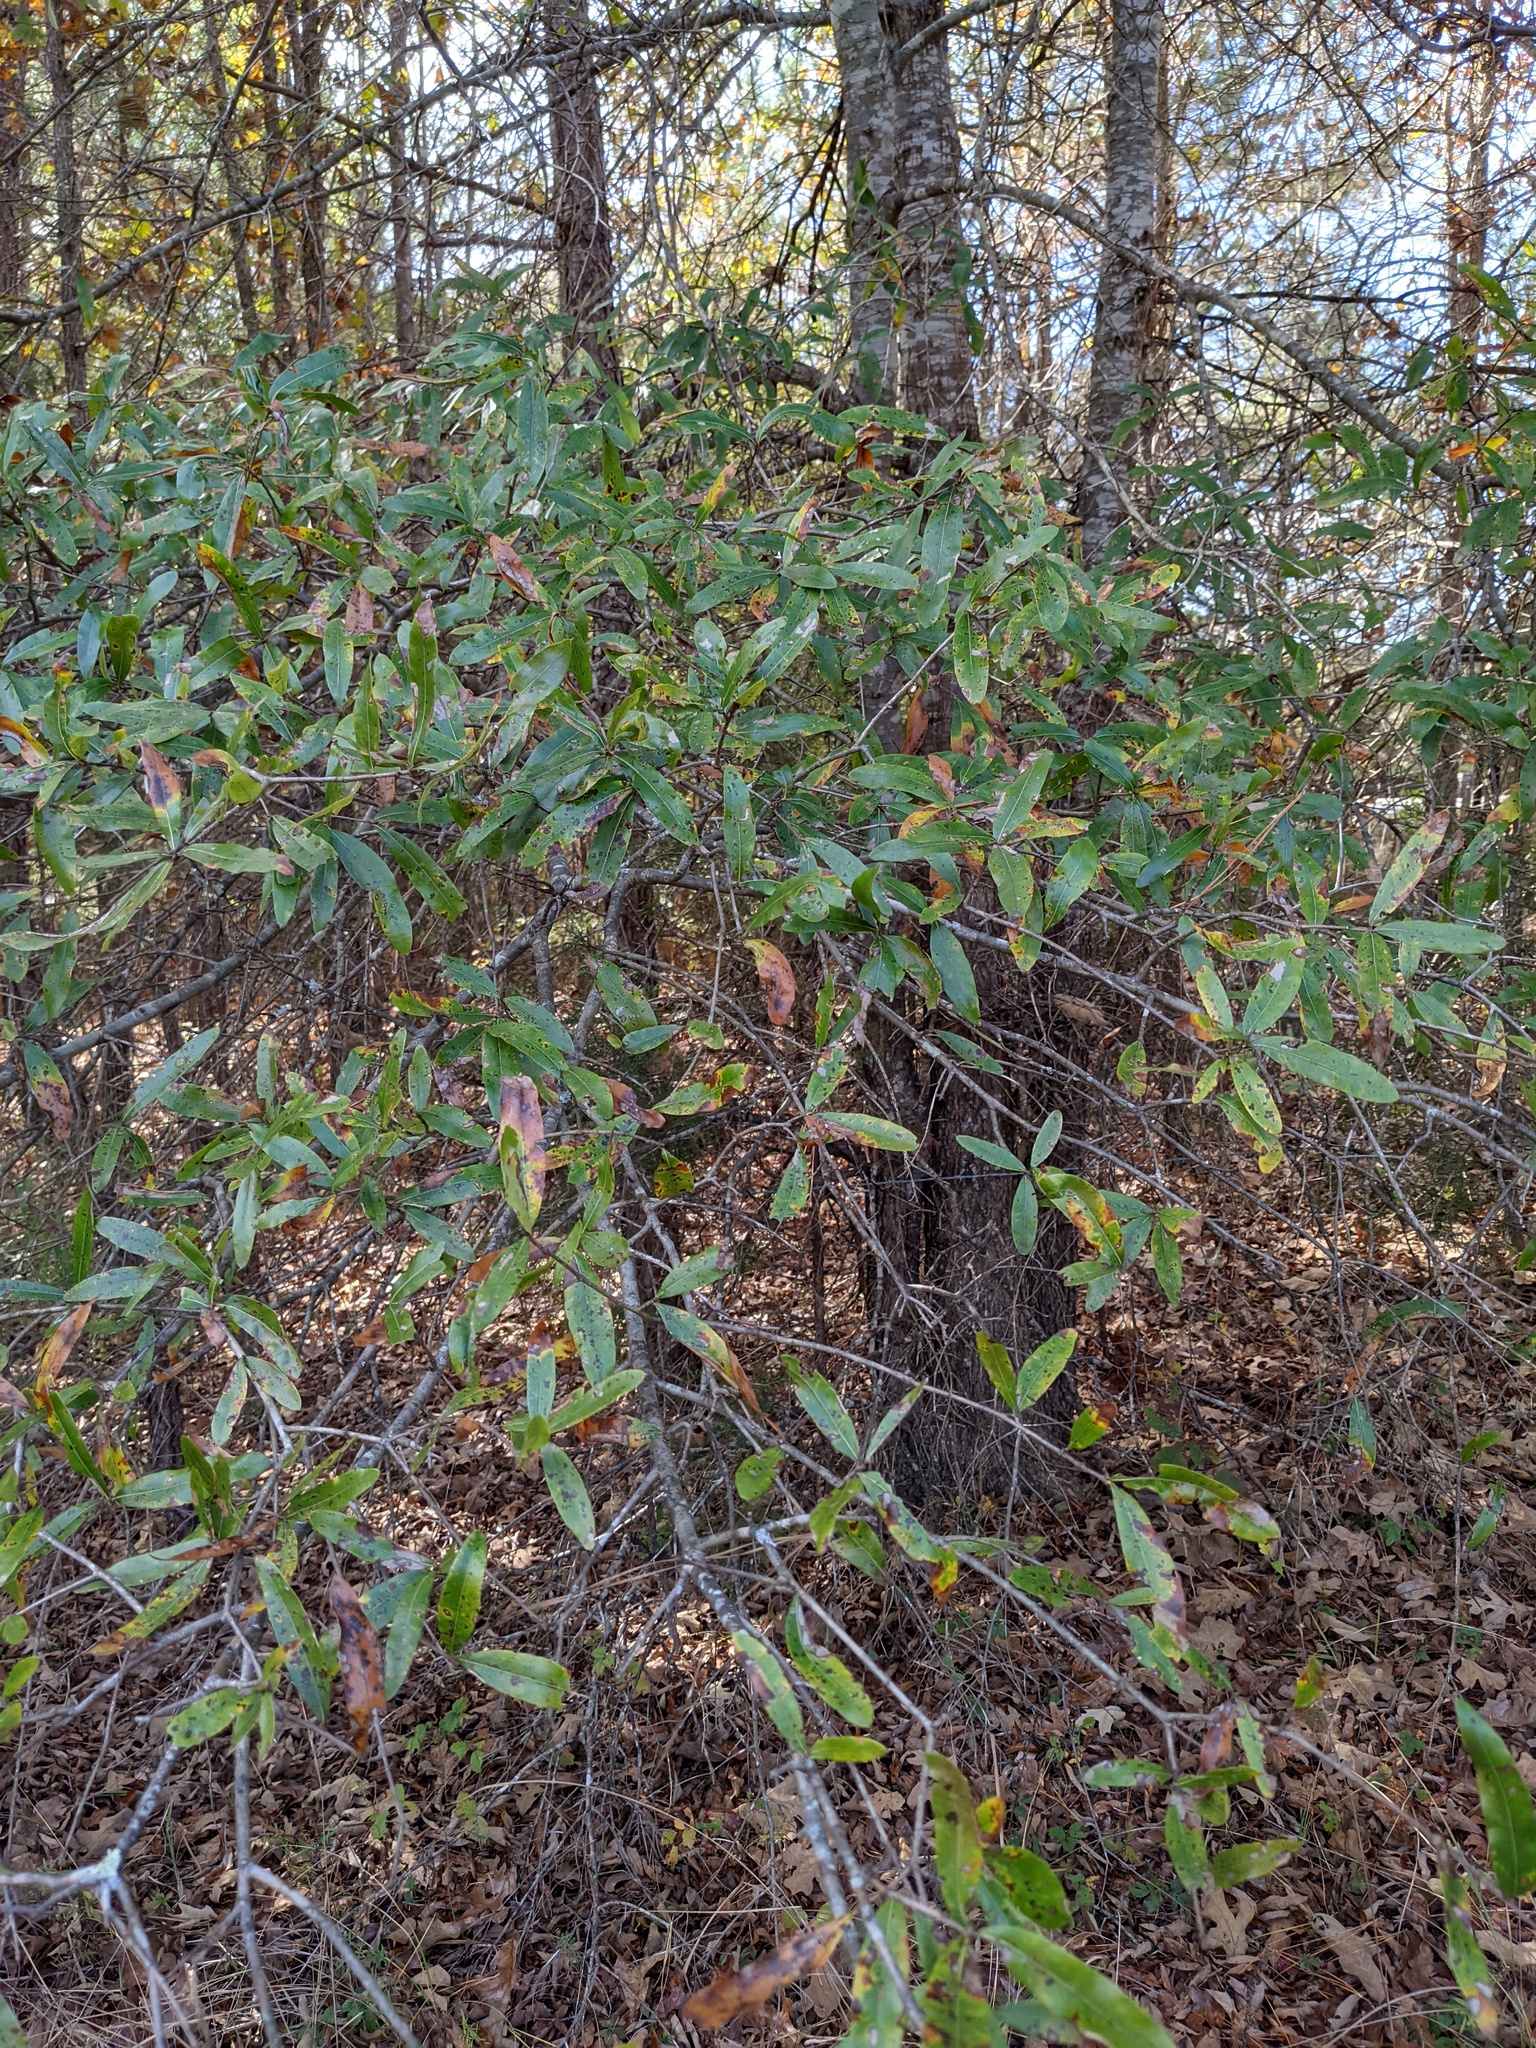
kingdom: Plantae
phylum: Tracheophyta
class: Magnoliopsida
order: Fagales
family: Fagaceae
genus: Quercus
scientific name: Quercus phellos
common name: Willow oak
